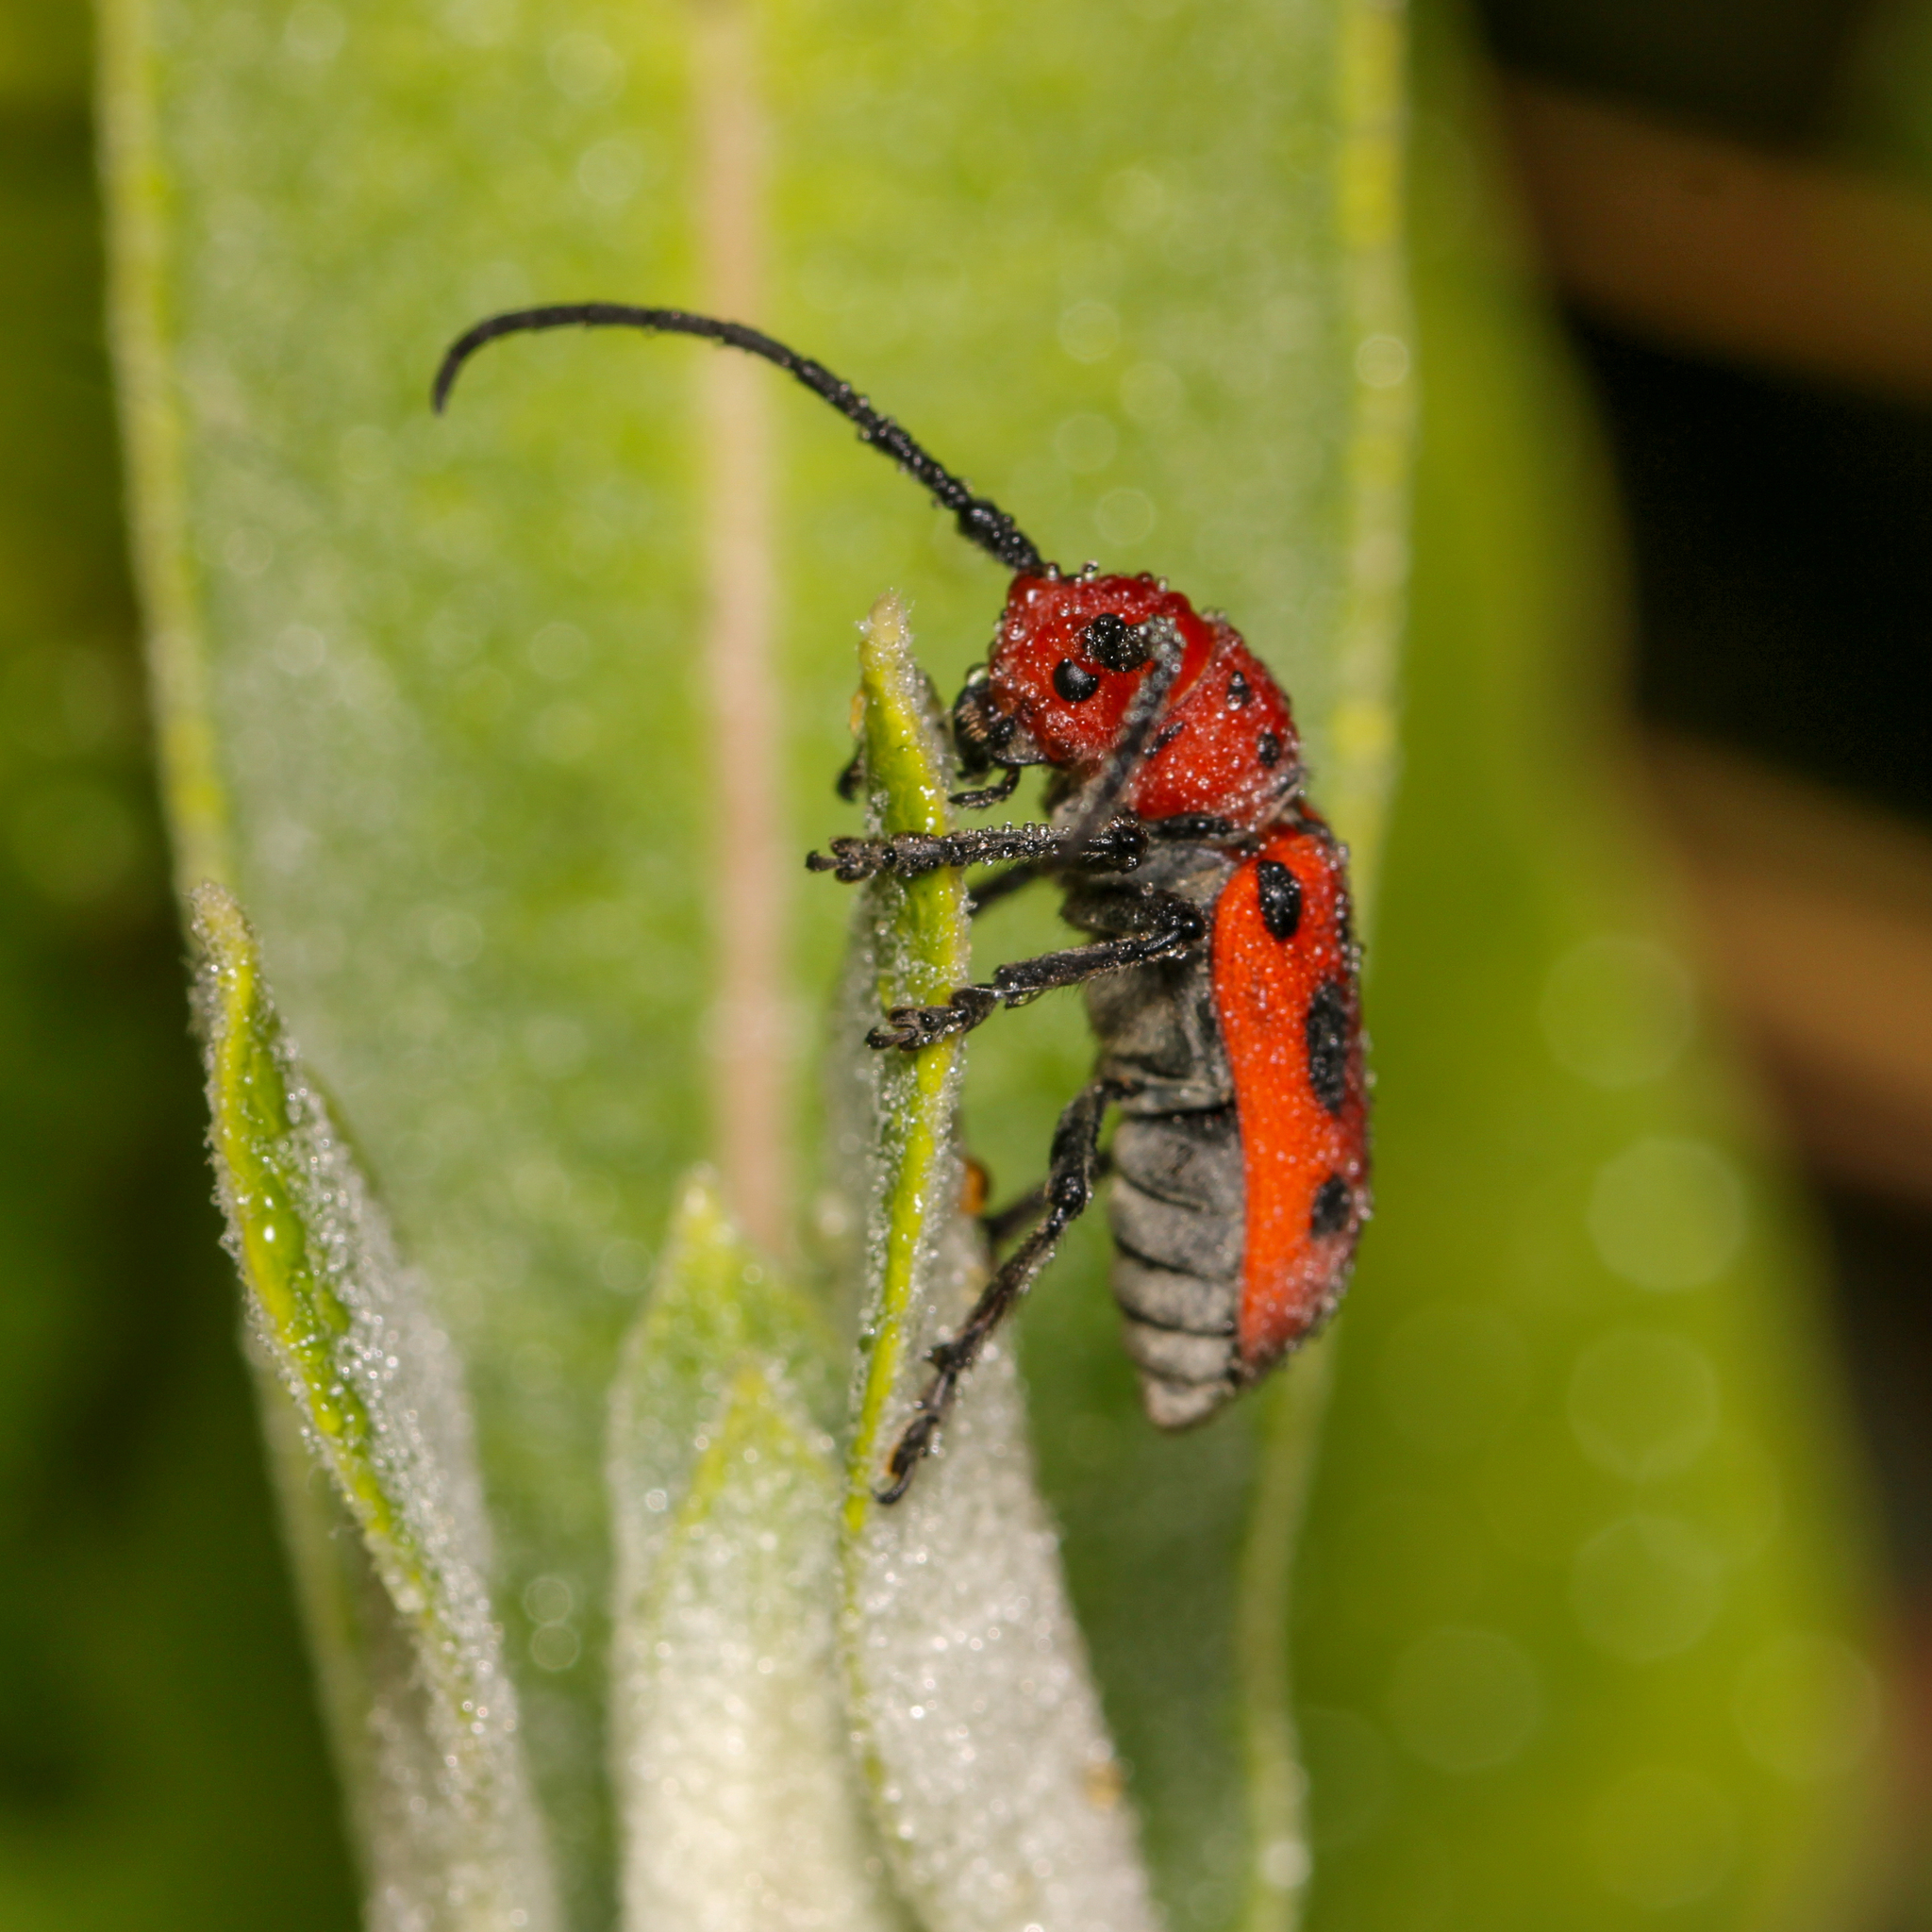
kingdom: Animalia
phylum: Arthropoda
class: Insecta
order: Coleoptera
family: Cerambycidae
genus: Tetraopes
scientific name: Tetraopes tetrophthalmus
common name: Red milkweed beetle
